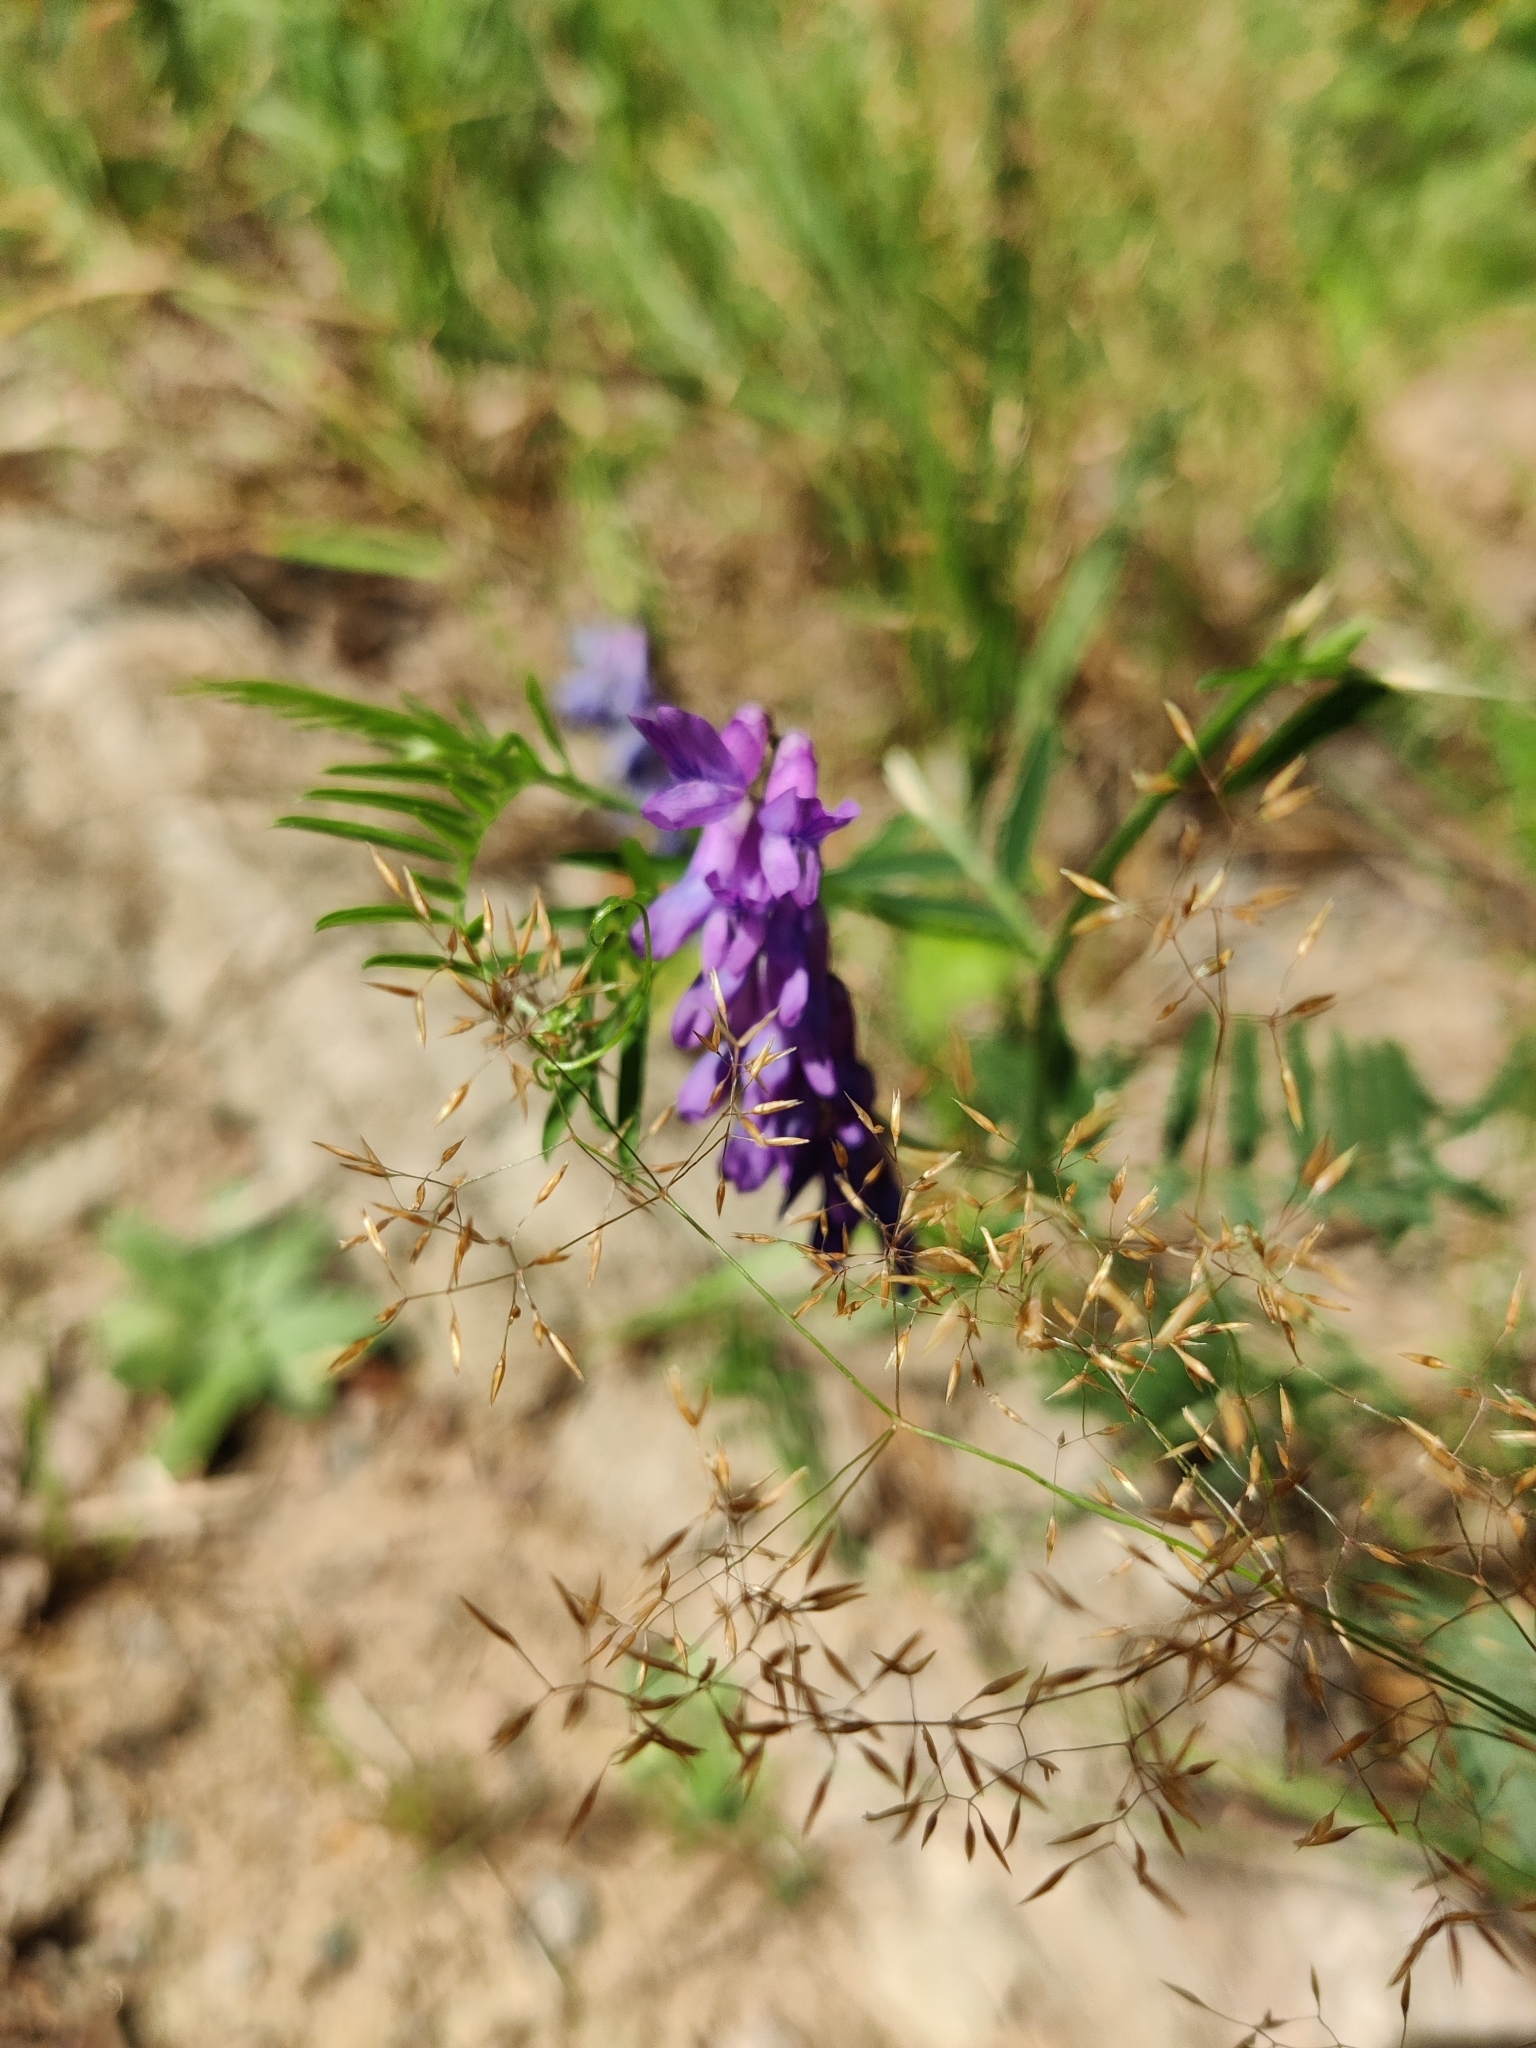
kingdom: Plantae
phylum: Tracheophyta
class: Magnoliopsida
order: Fabales
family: Fabaceae
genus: Vicia
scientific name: Vicia cracca
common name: Bird vetch
